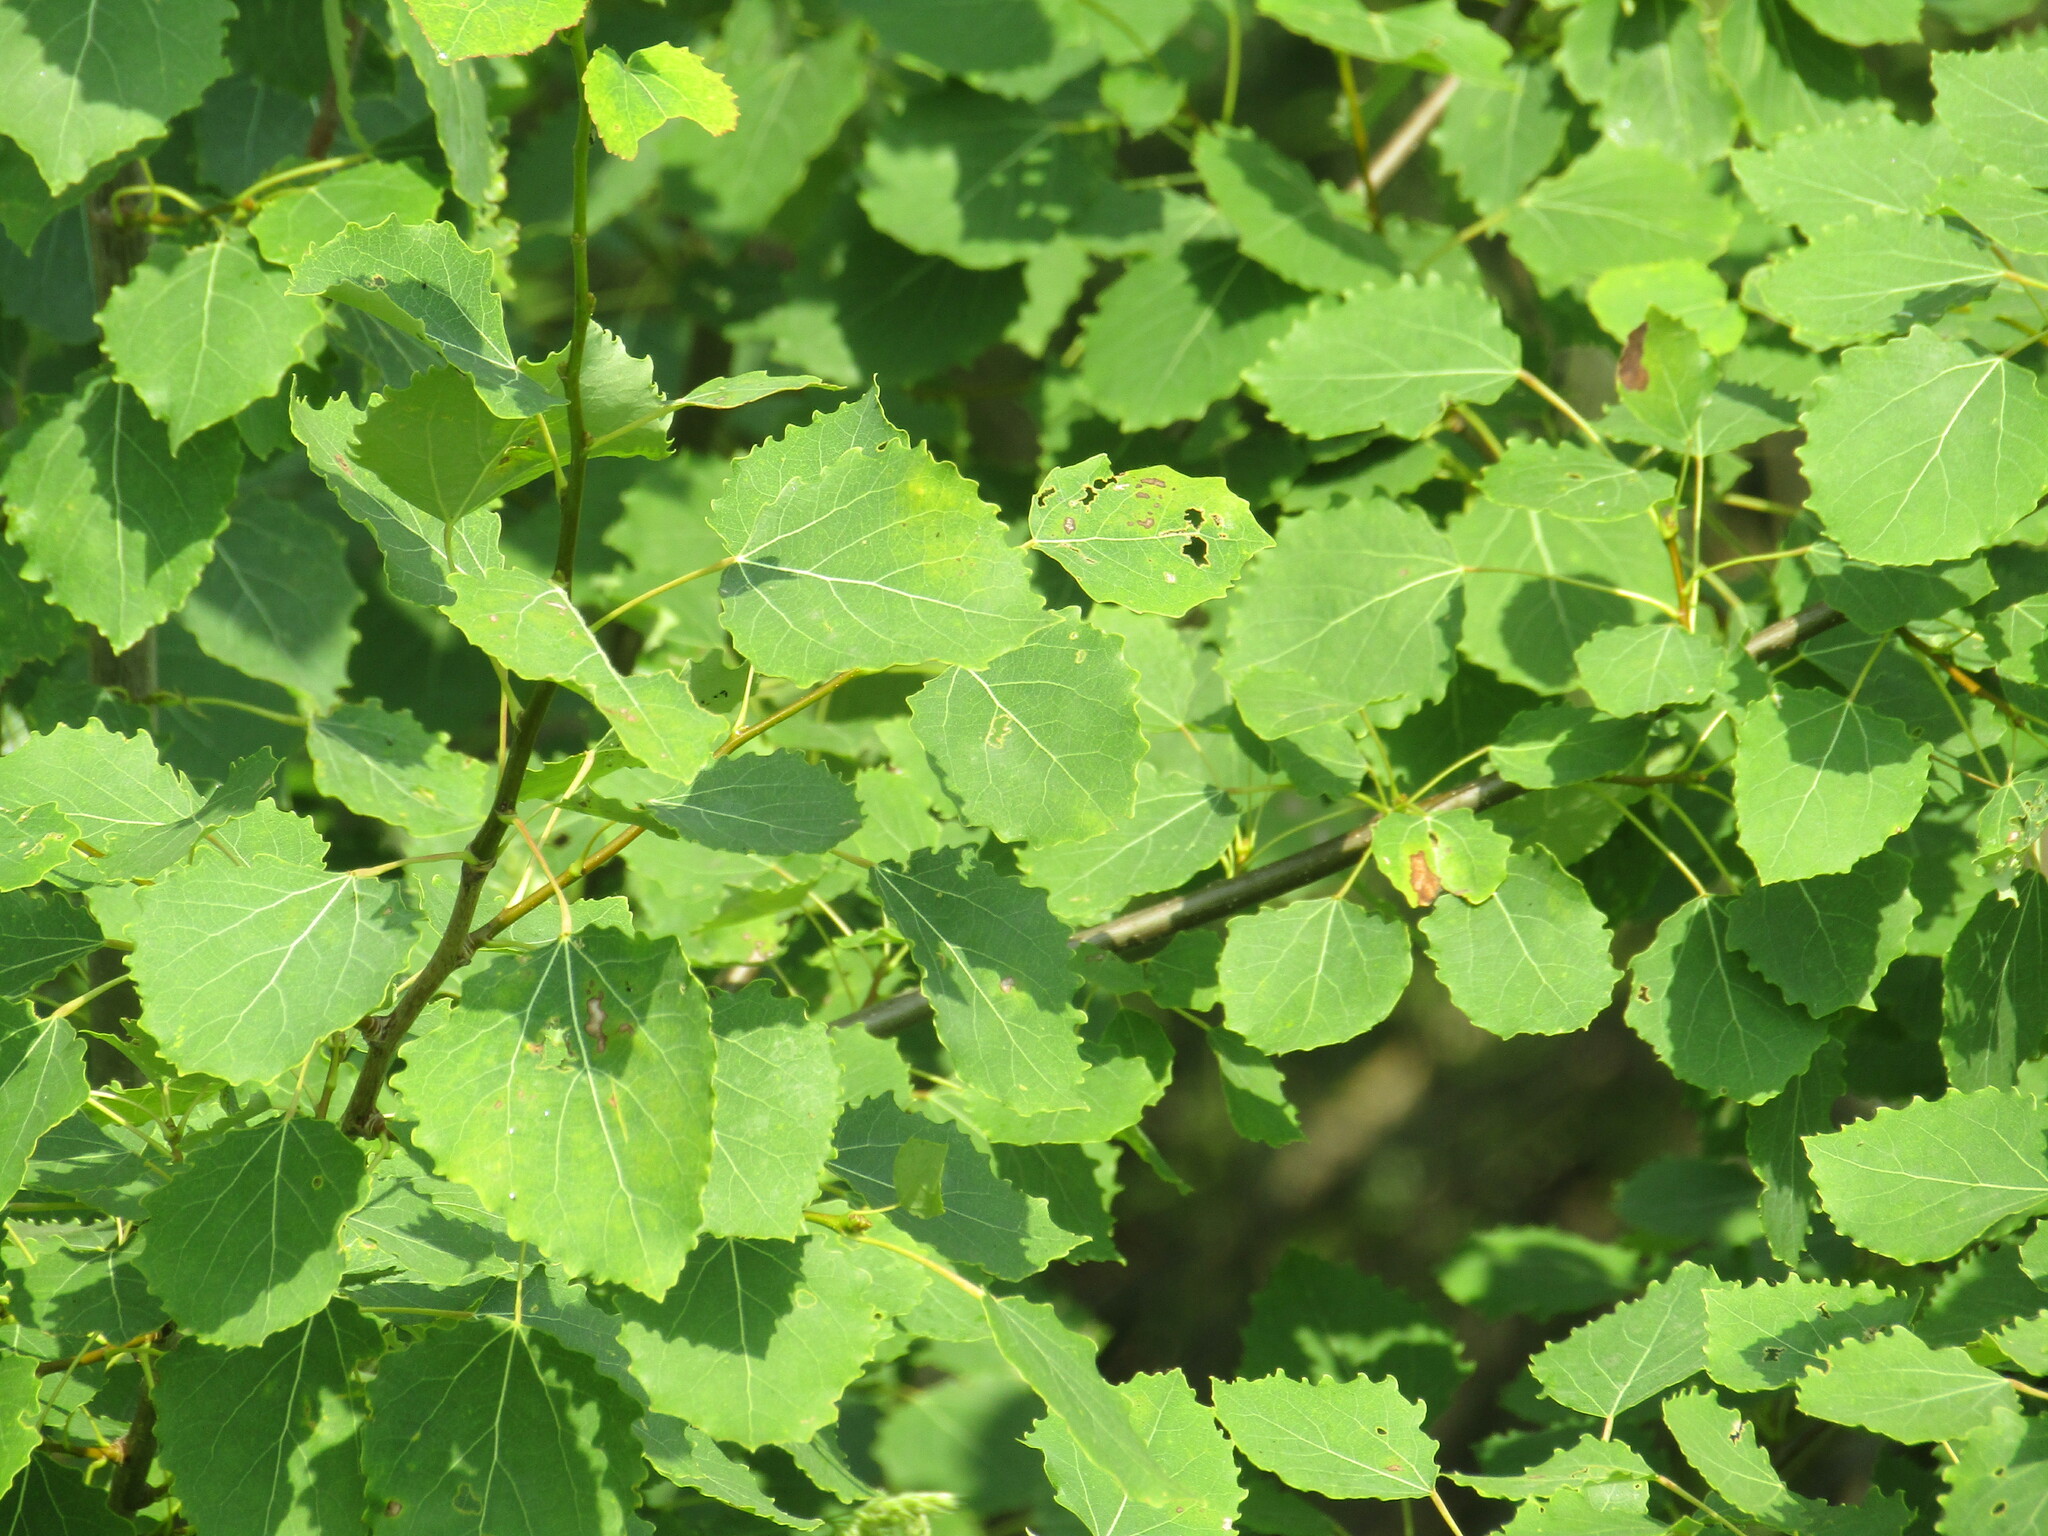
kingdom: Plantae
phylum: Tracheophyta
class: Magnoliopsida
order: Malpighiales
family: Salicaceae
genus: Populus
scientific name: Populus tremula
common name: European aspen
